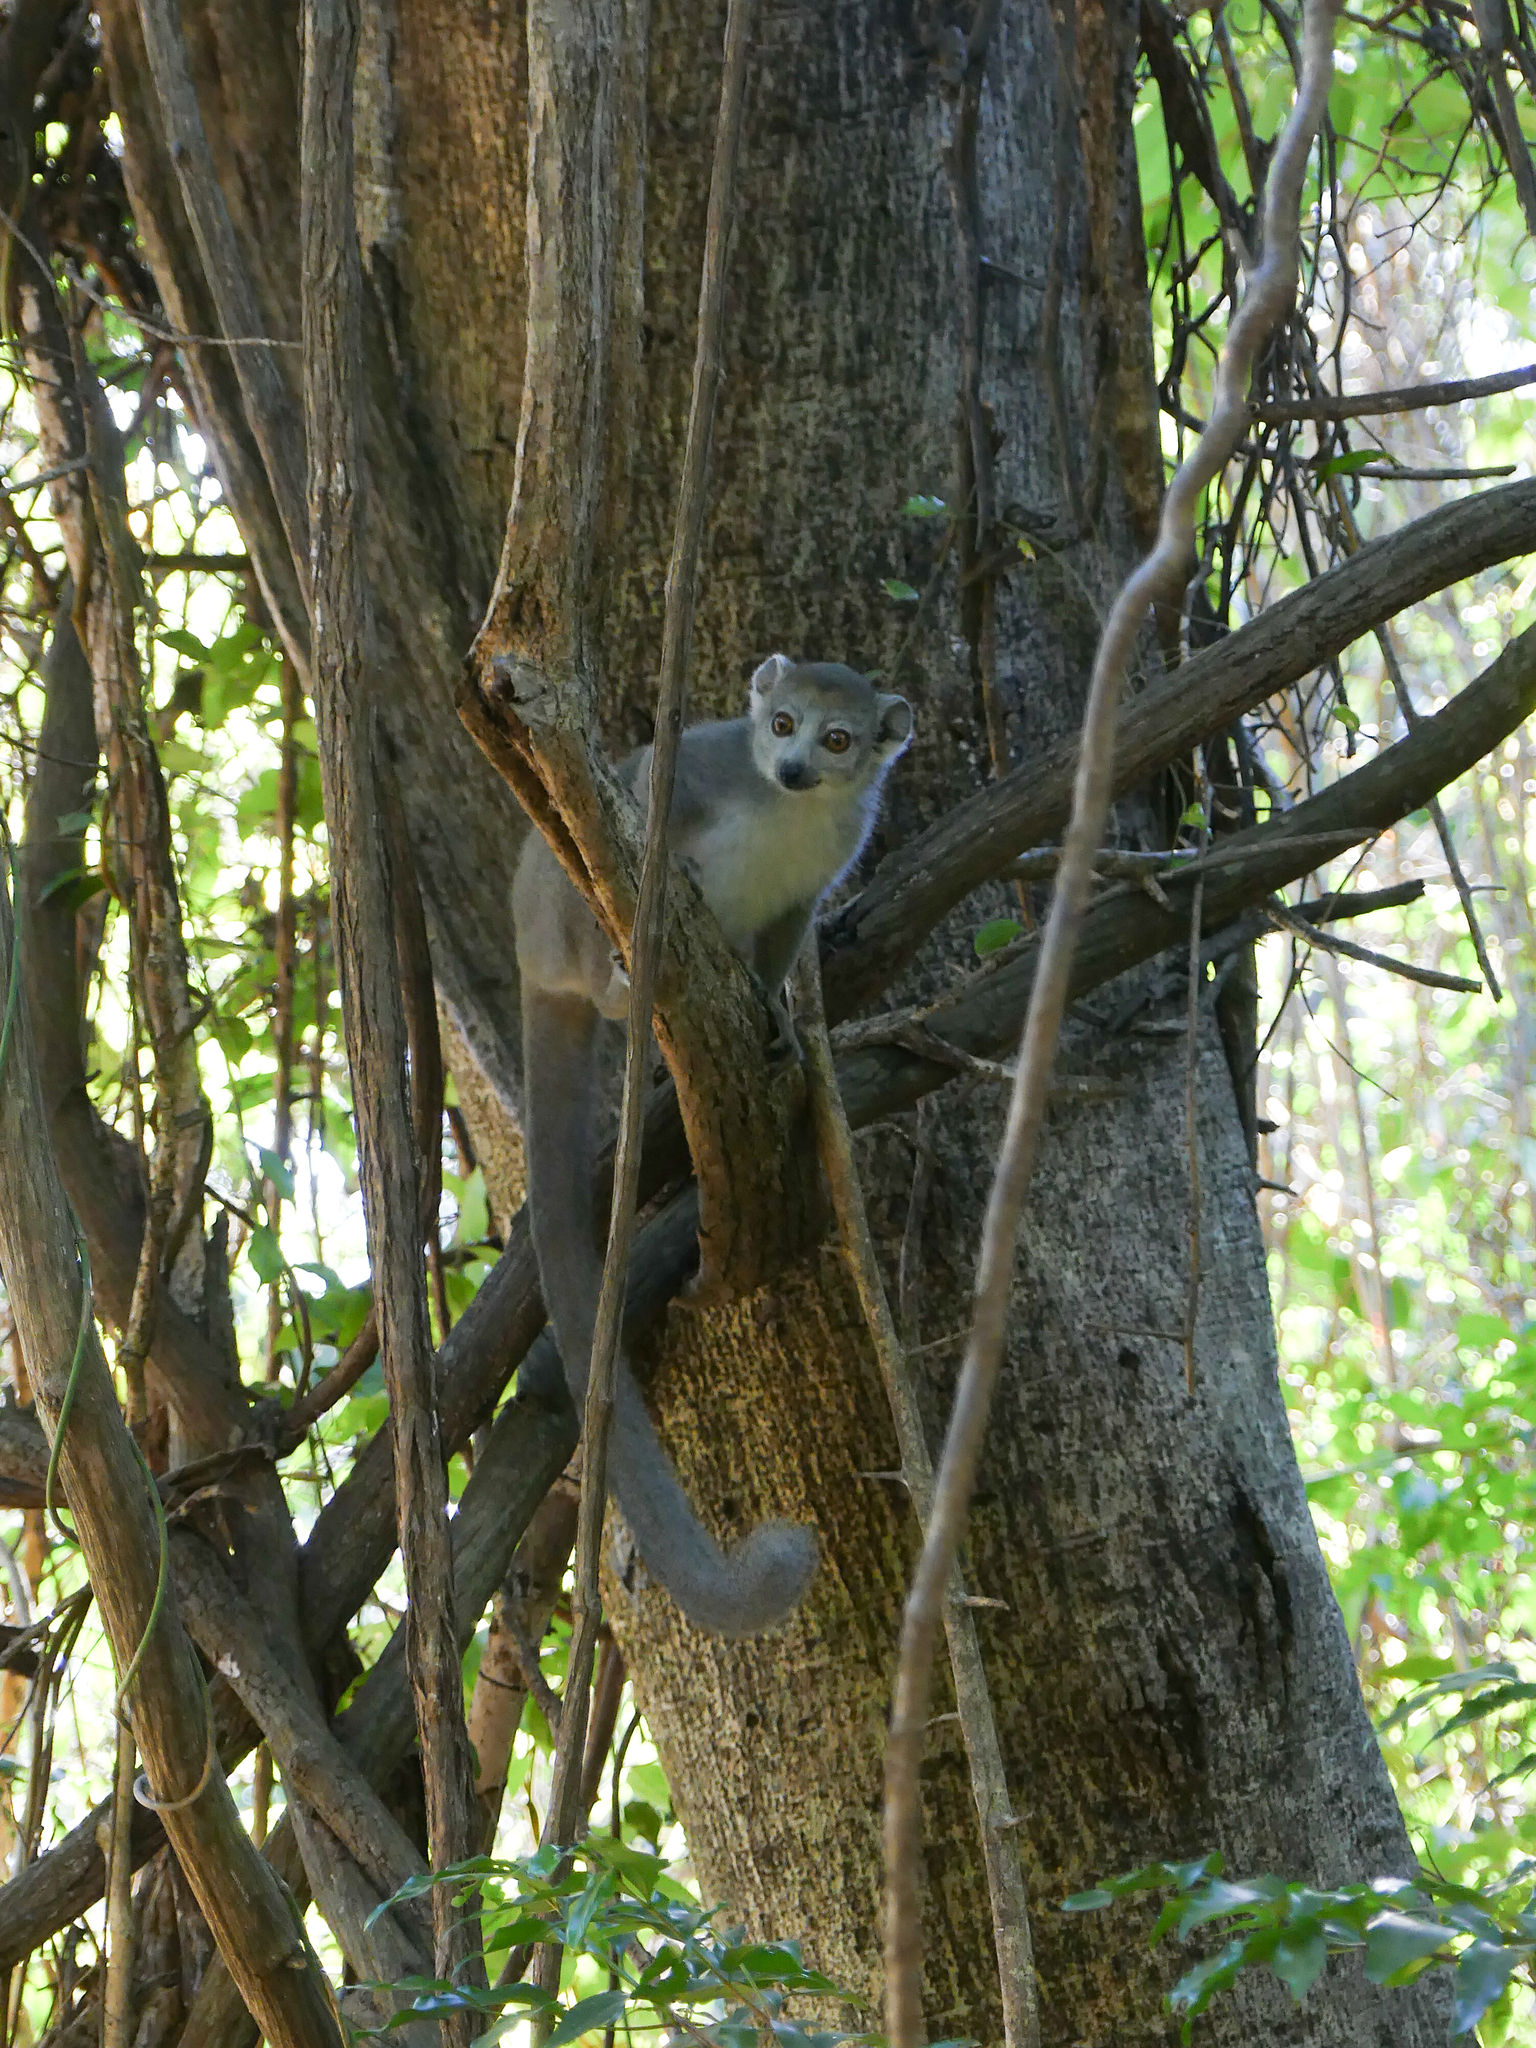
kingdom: Animalia
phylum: Chordata
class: Mammalia
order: Primates
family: Lemuridae
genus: Eulemur
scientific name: Eulemur coronatus
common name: Crowned lemur
